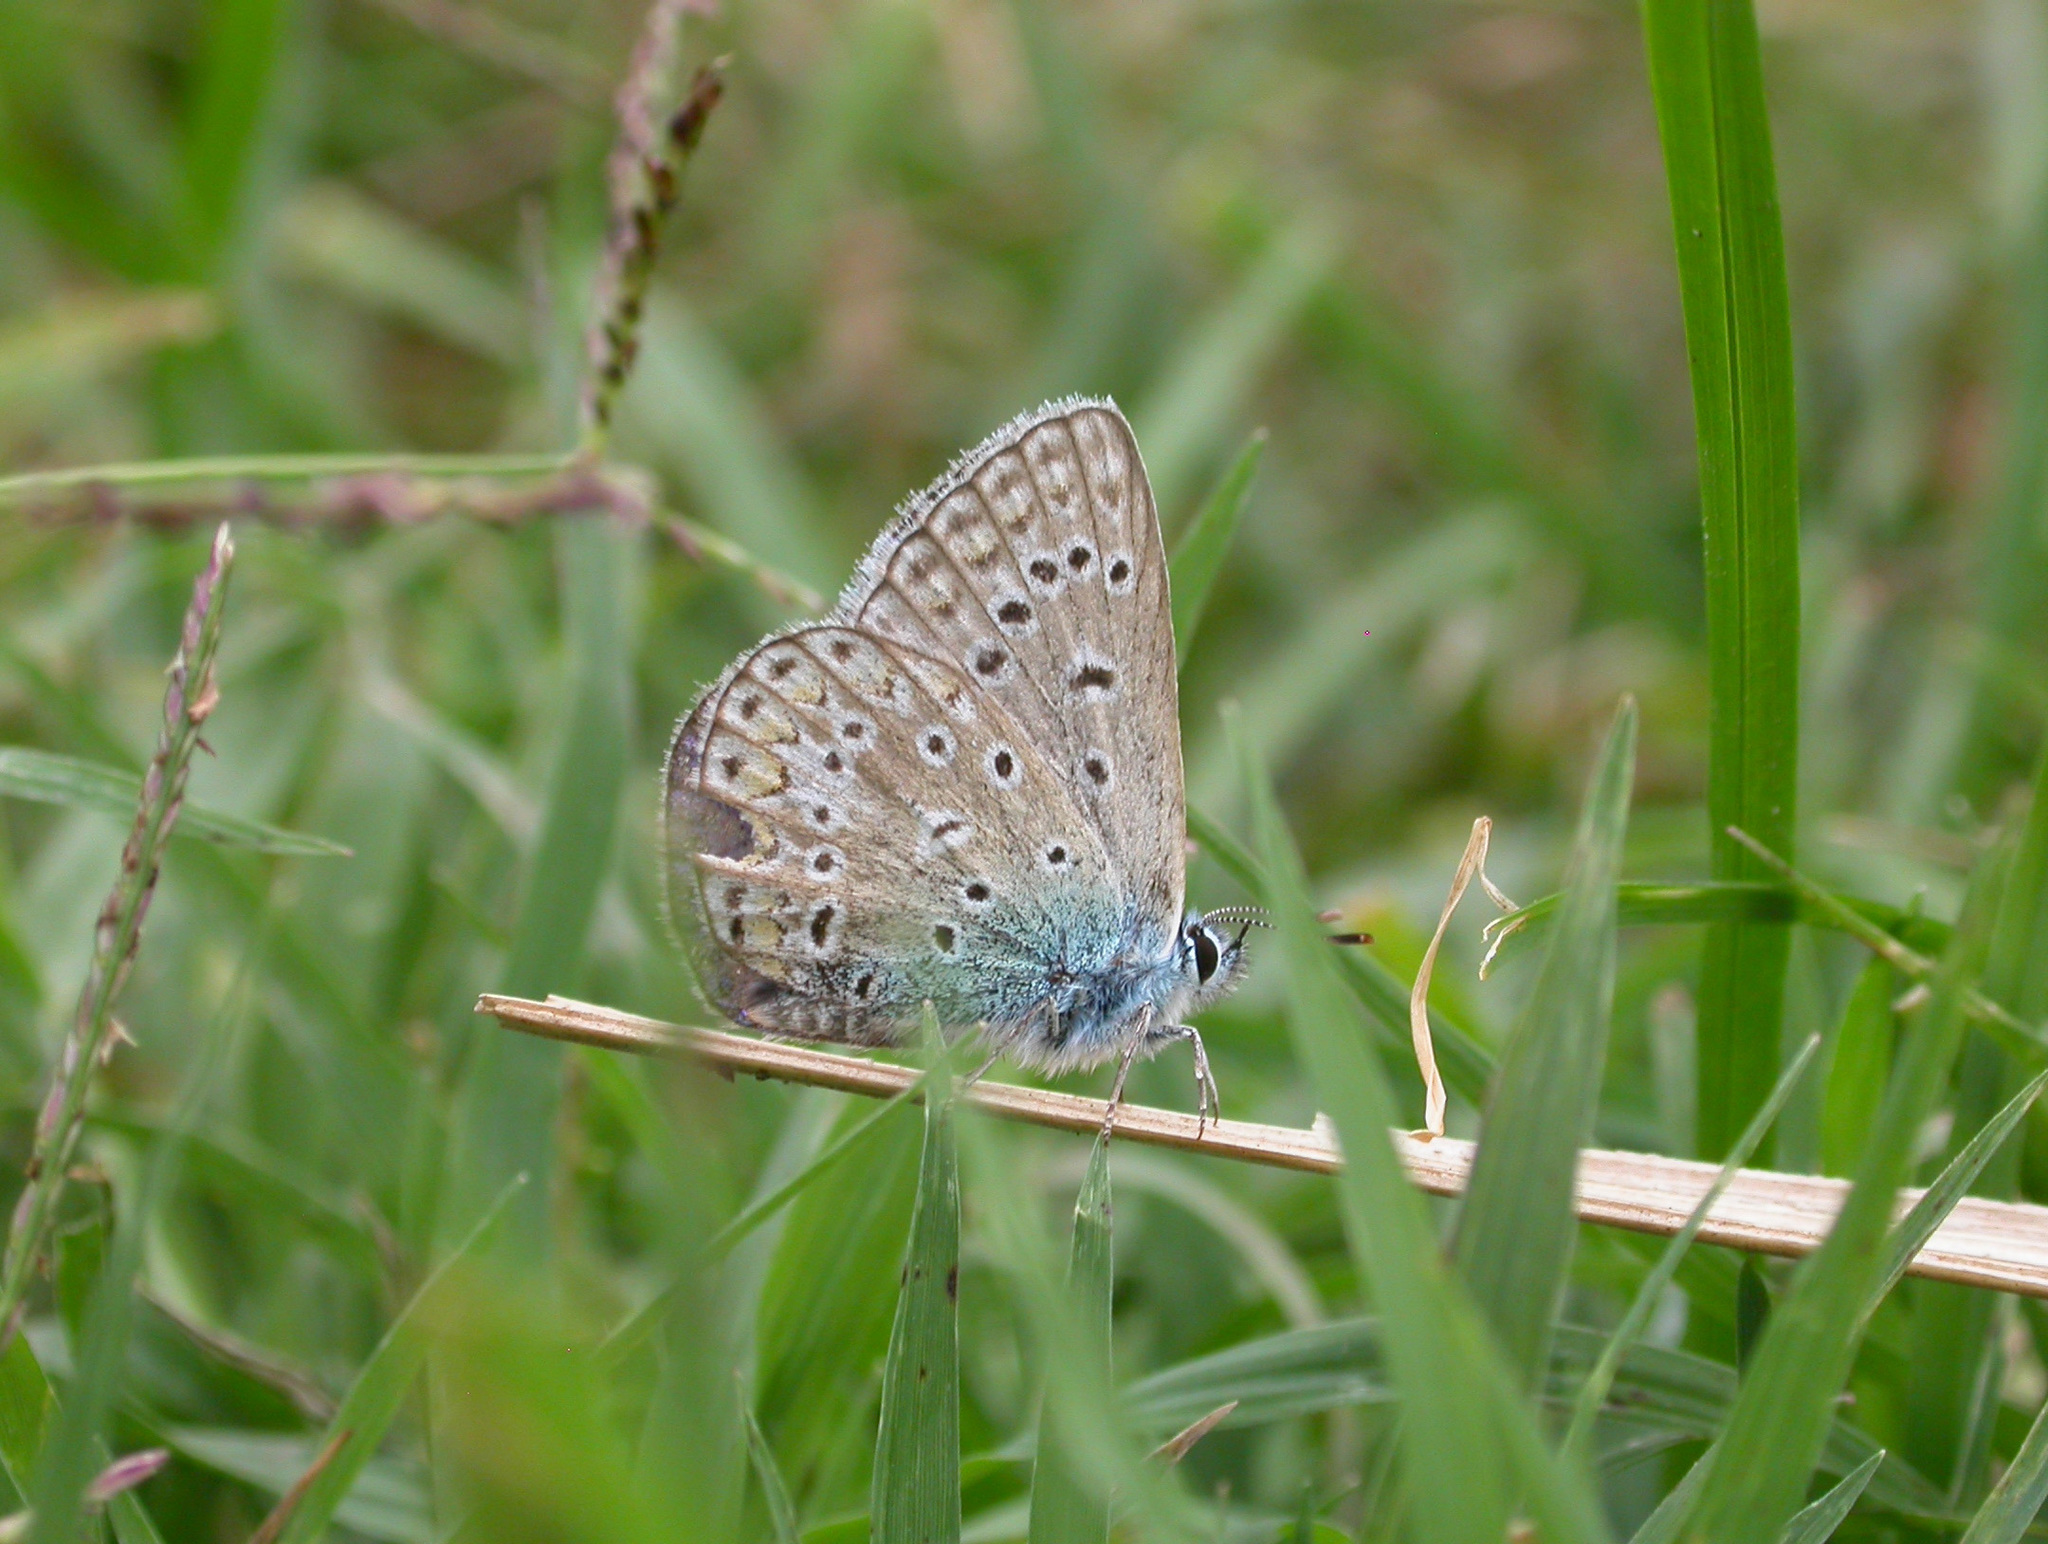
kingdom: Animalia
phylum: Arthropoda
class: Insecta
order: Lepidoptera
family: Lycaenidae
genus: Polyommatus
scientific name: Polyommatus icarus
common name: Common blue
